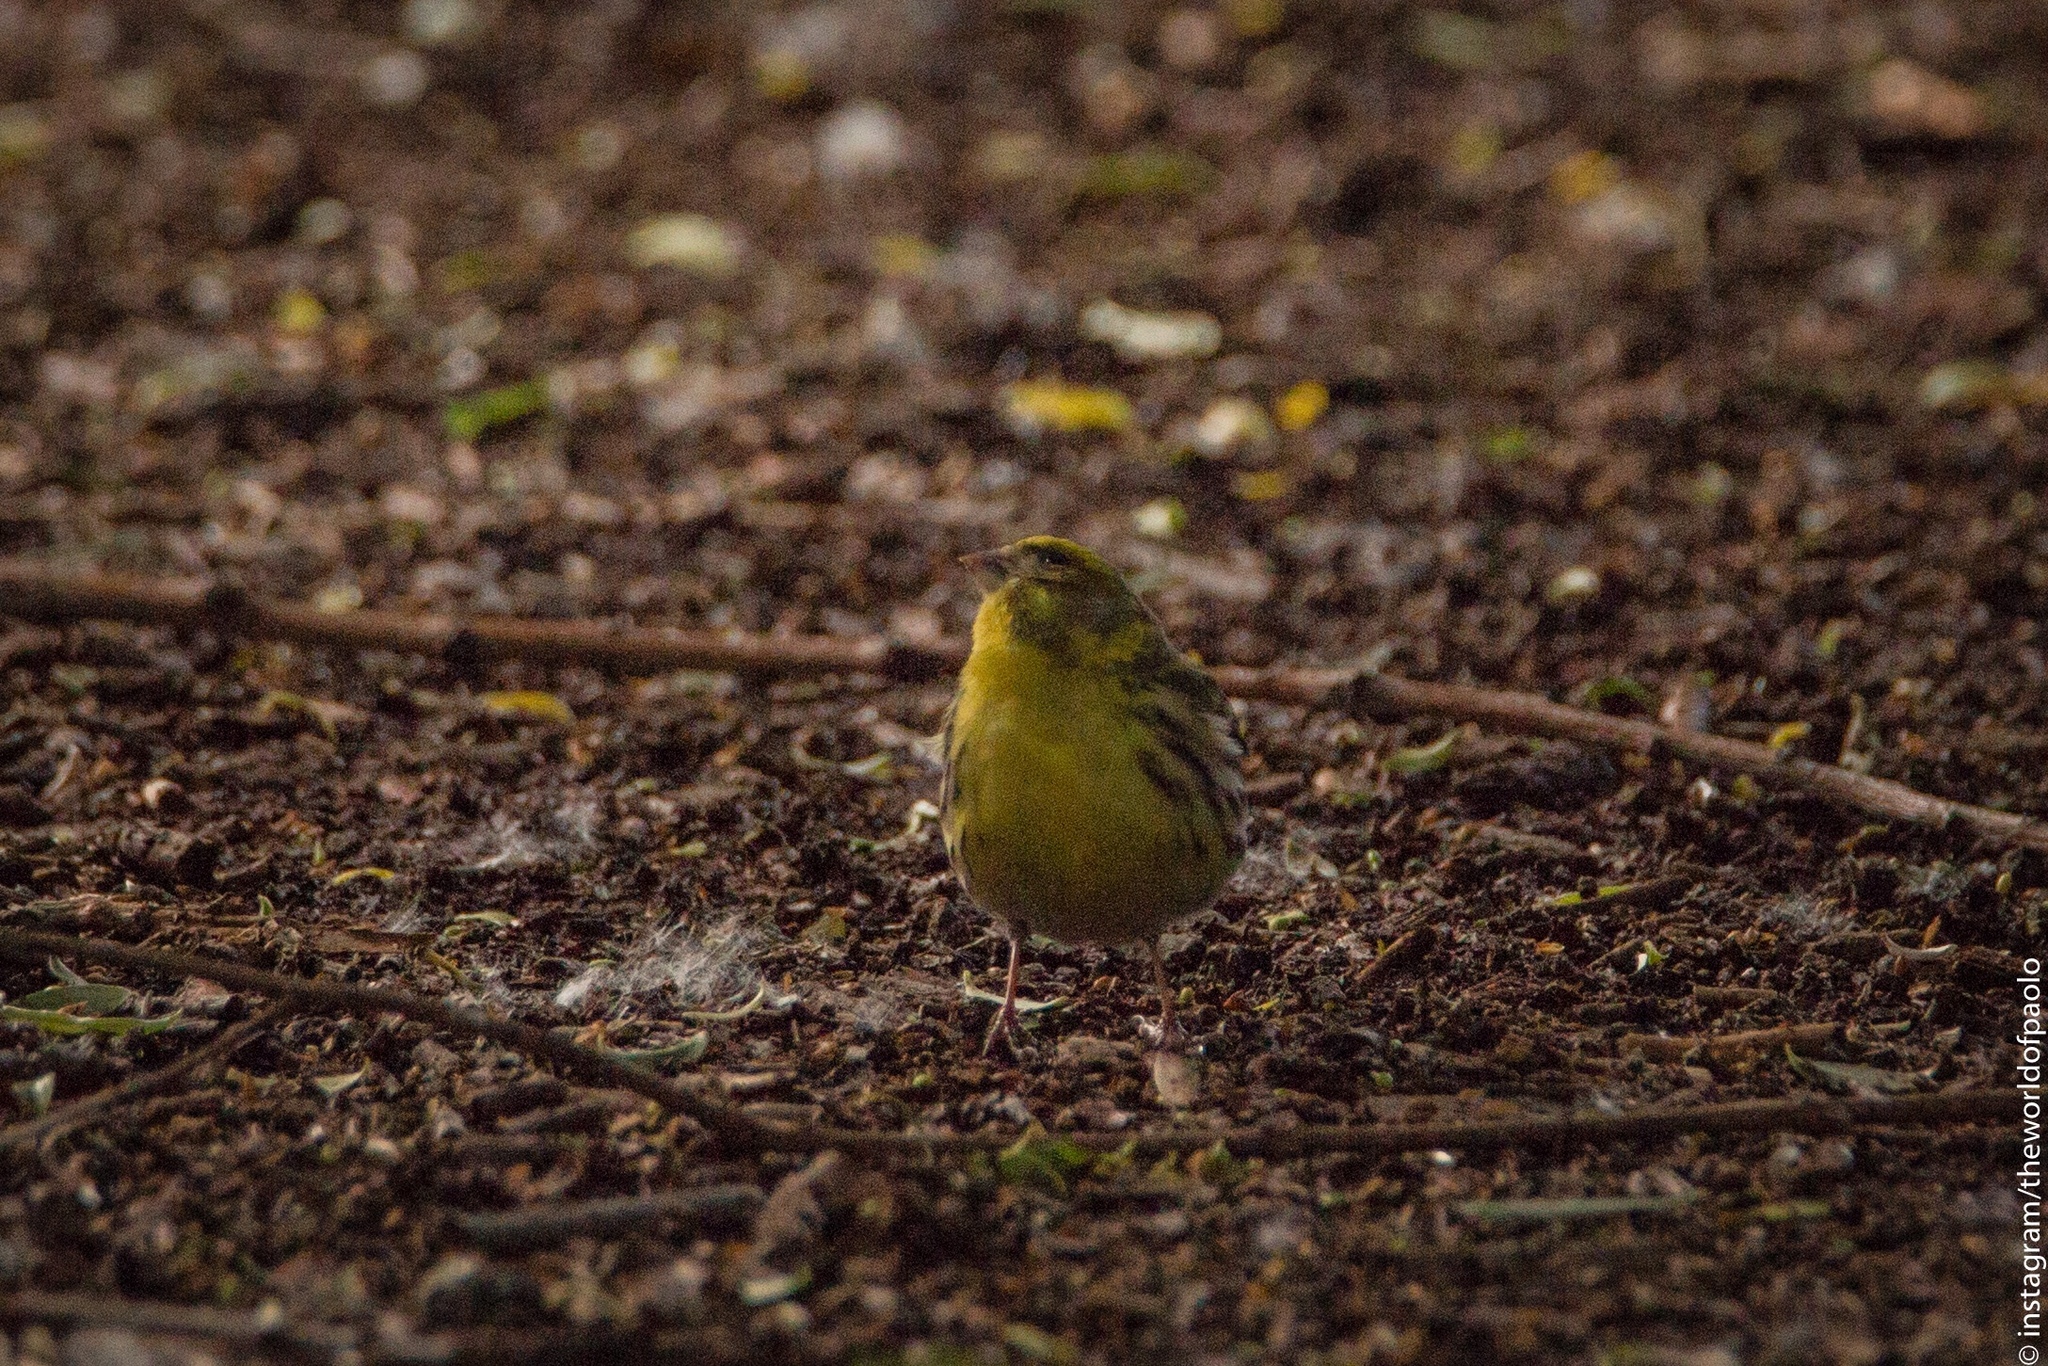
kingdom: Animalia
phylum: Chordata
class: Aves
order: Passeriformes
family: Fringillidae
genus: Serinus
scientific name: Serinus serinus
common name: European serin
